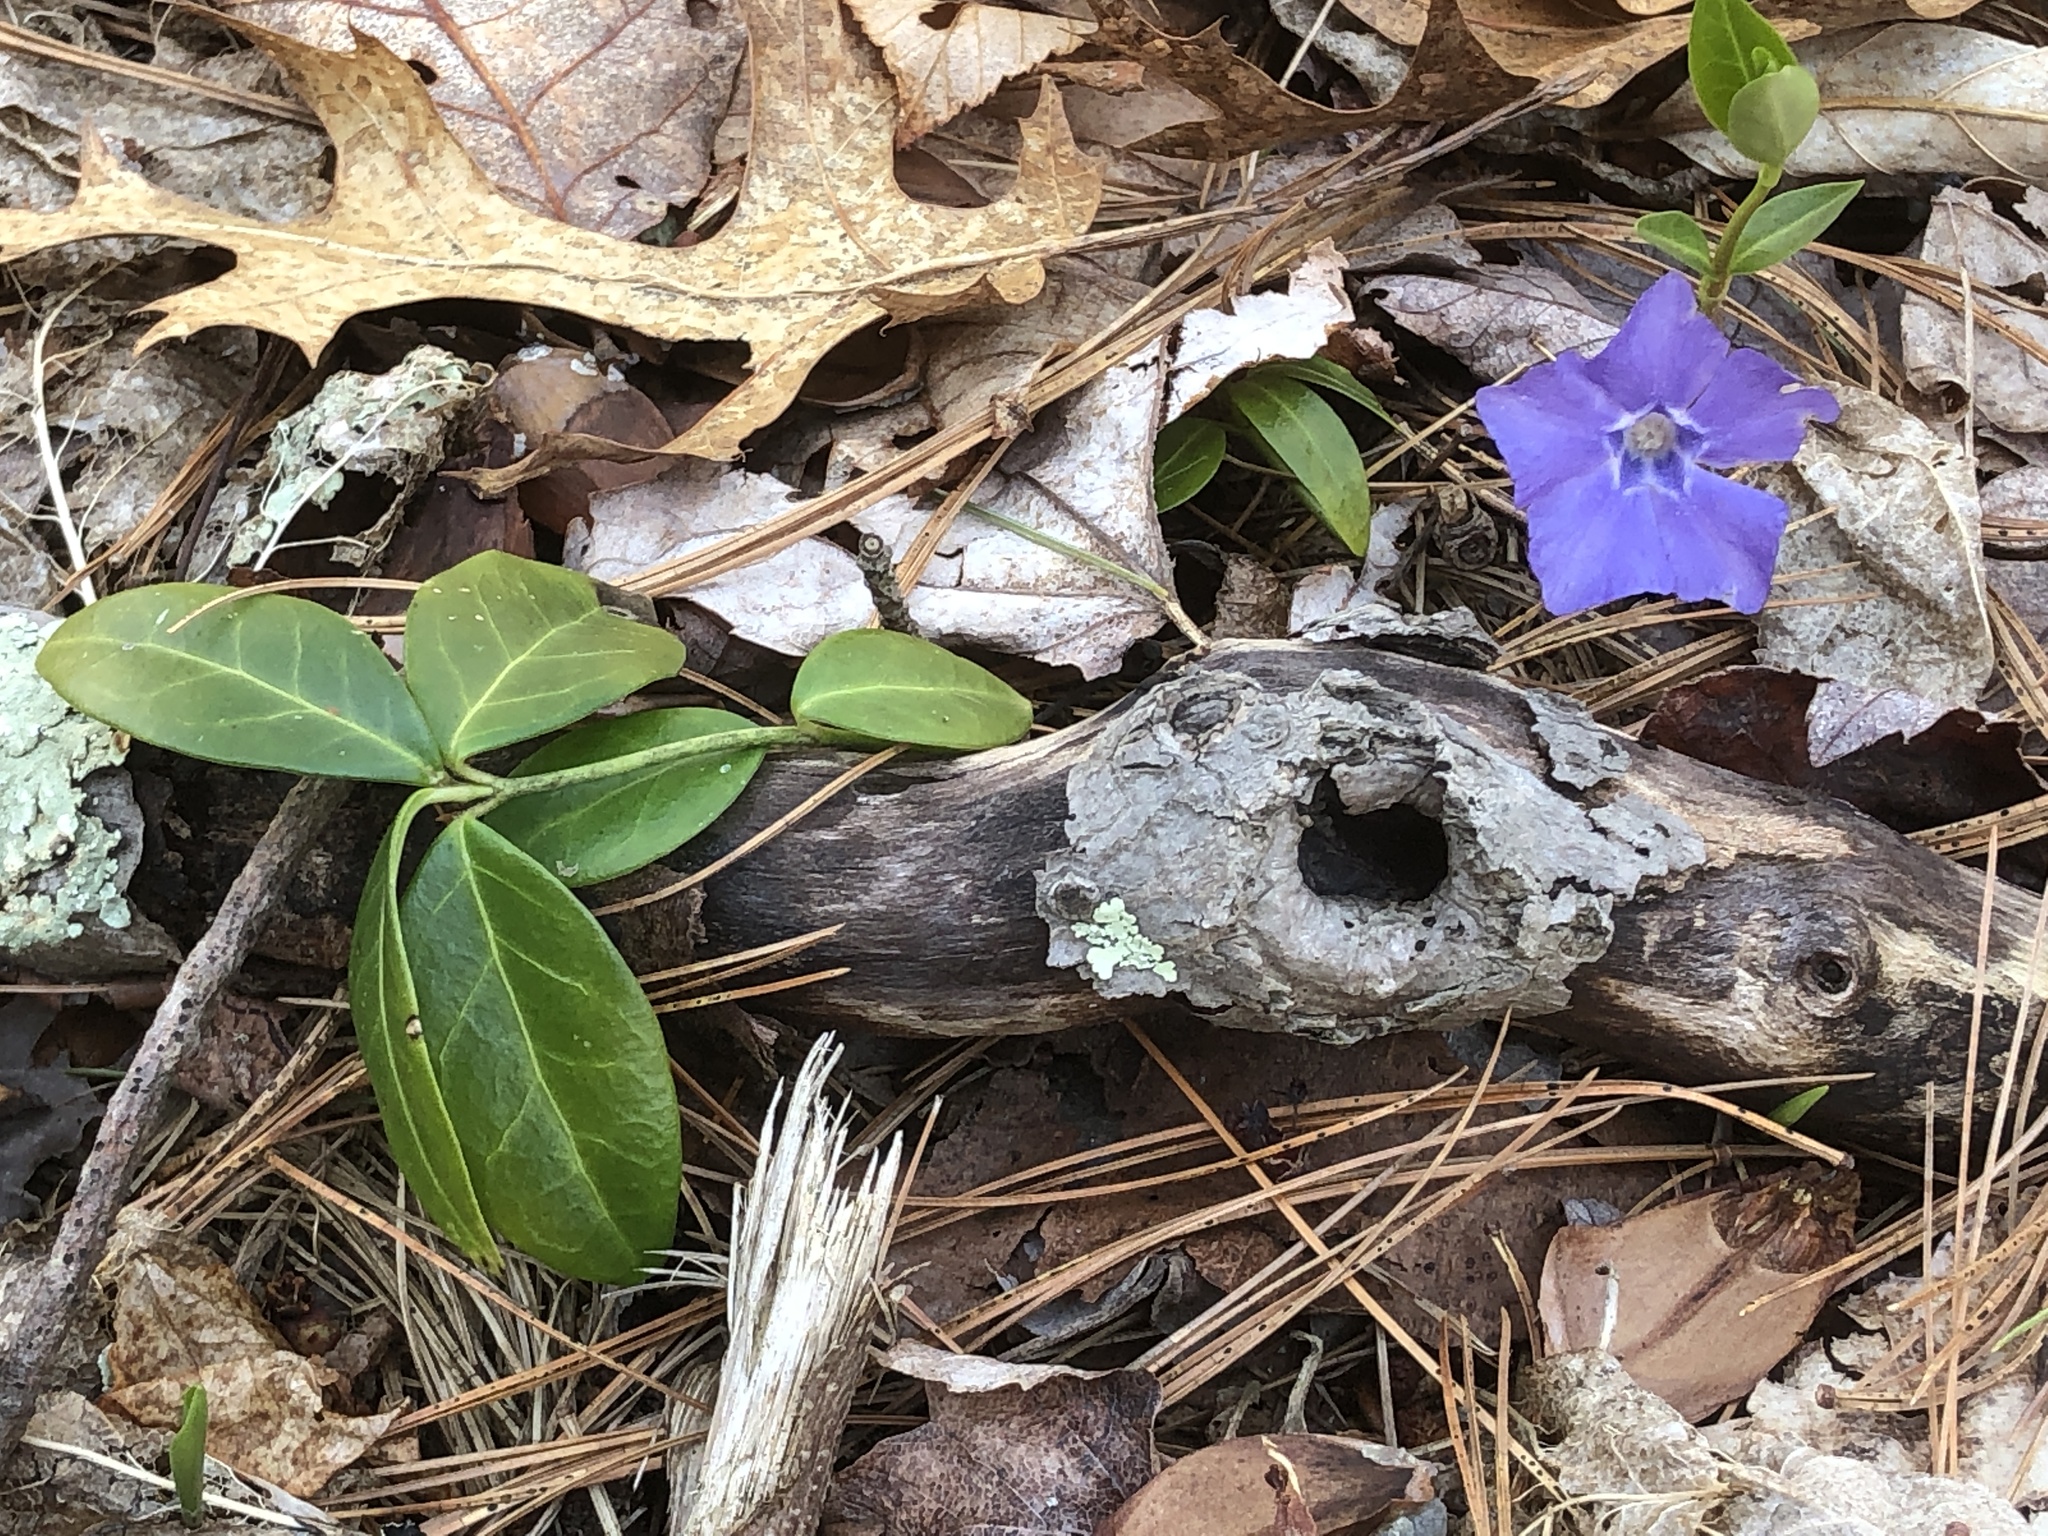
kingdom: Plantae
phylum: Tracheophyta
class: Magnoliopsida
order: Gentianales
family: Apocynaceae
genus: Vinca
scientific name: Vinca minor
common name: Lesser periwinkle
